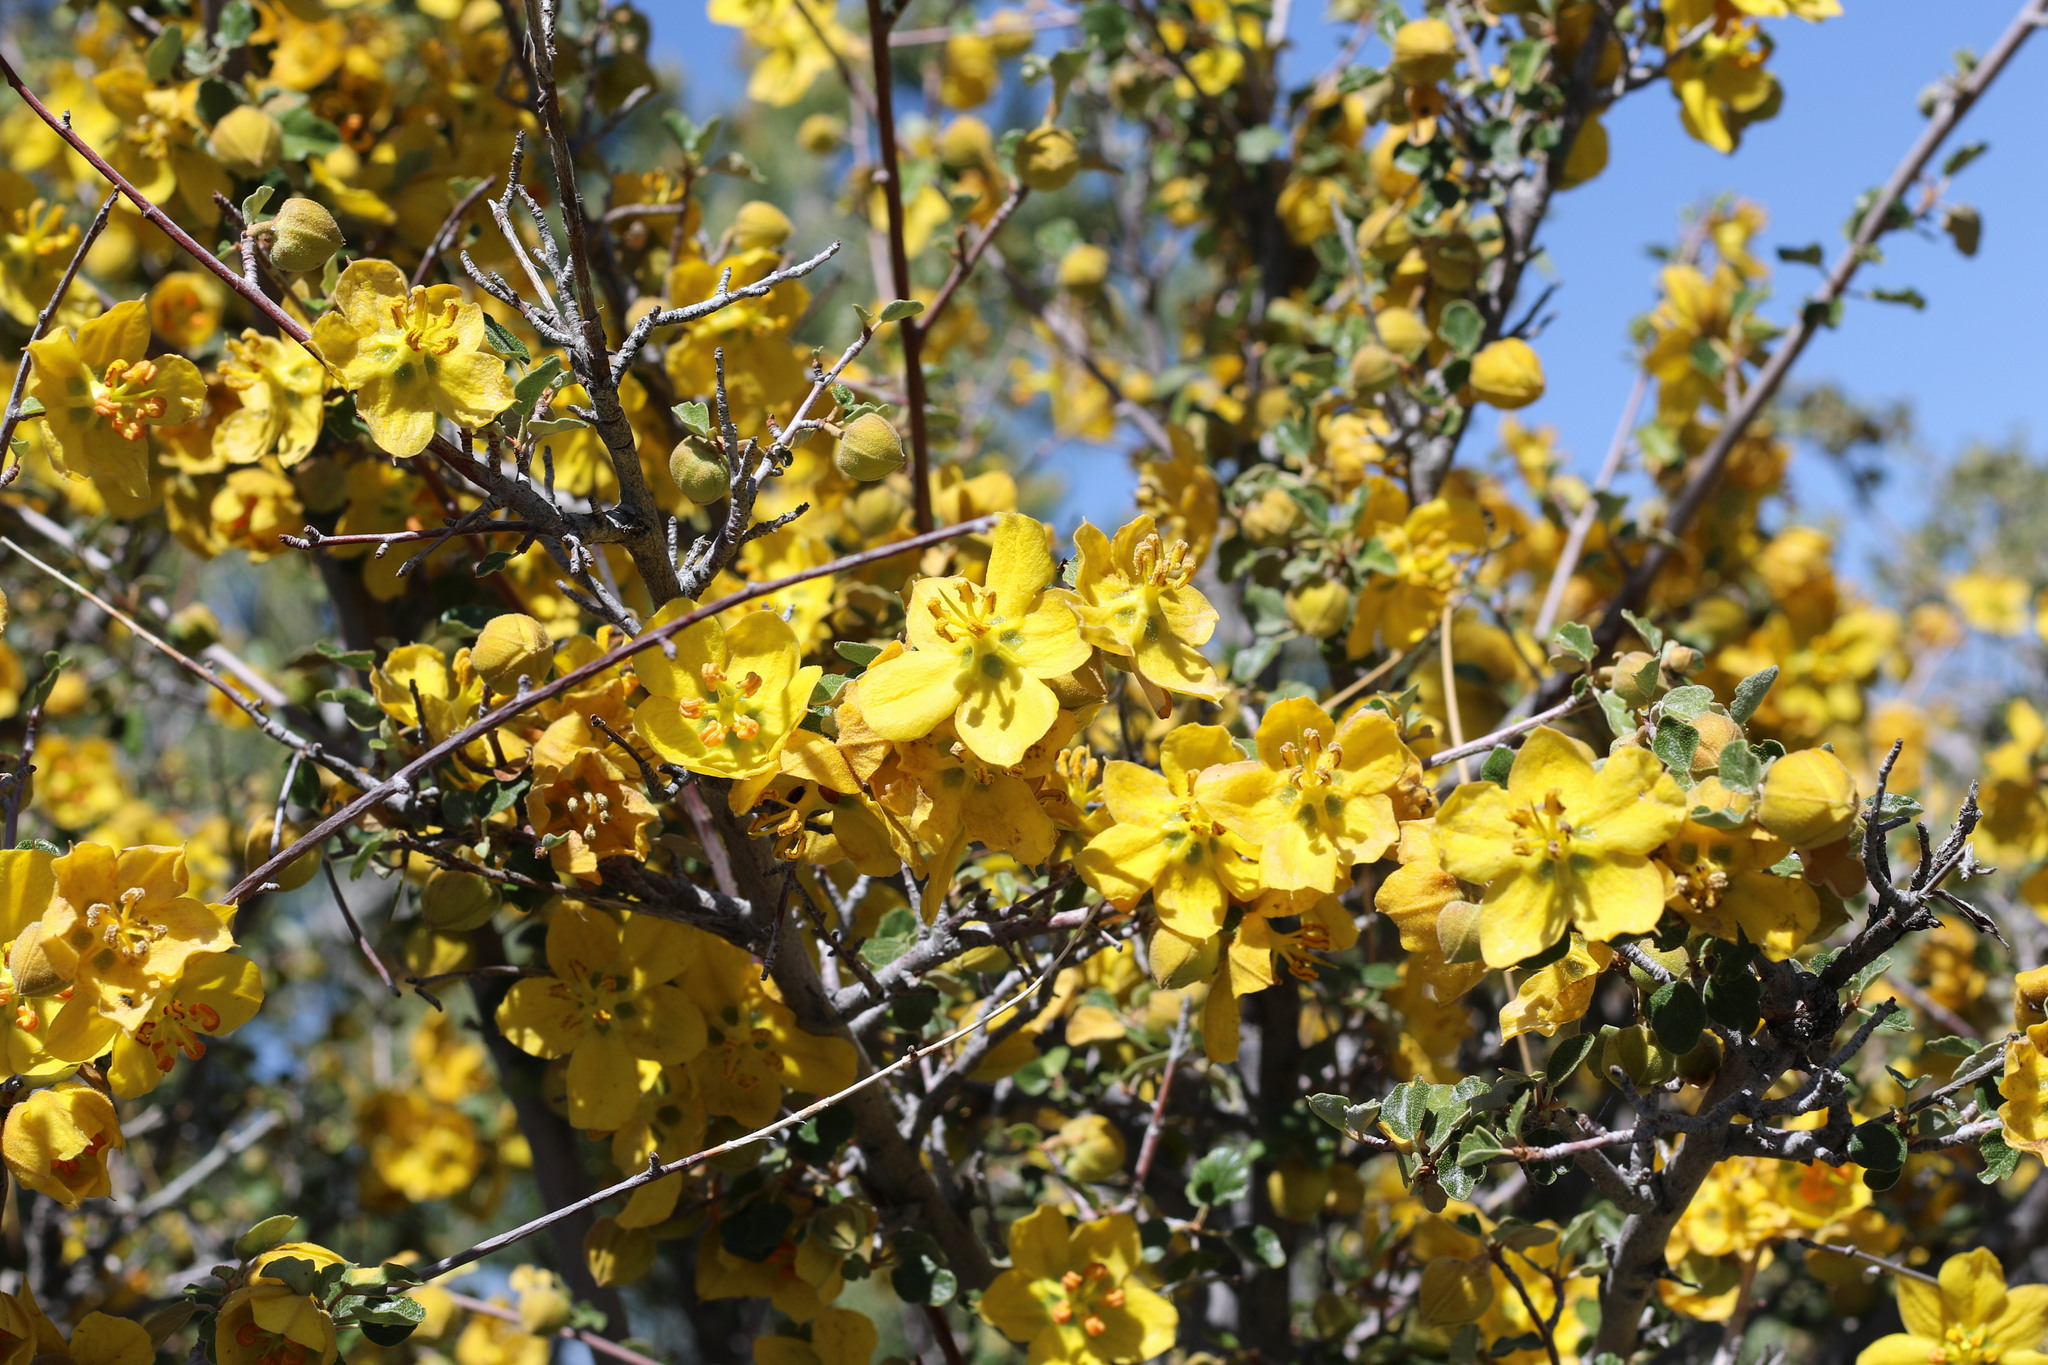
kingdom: Plantae
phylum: Tracheophyta
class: Magnoliopsida
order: Malvales
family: Malvaceae
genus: Fremontodendron
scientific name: Fremontodendron californicum
